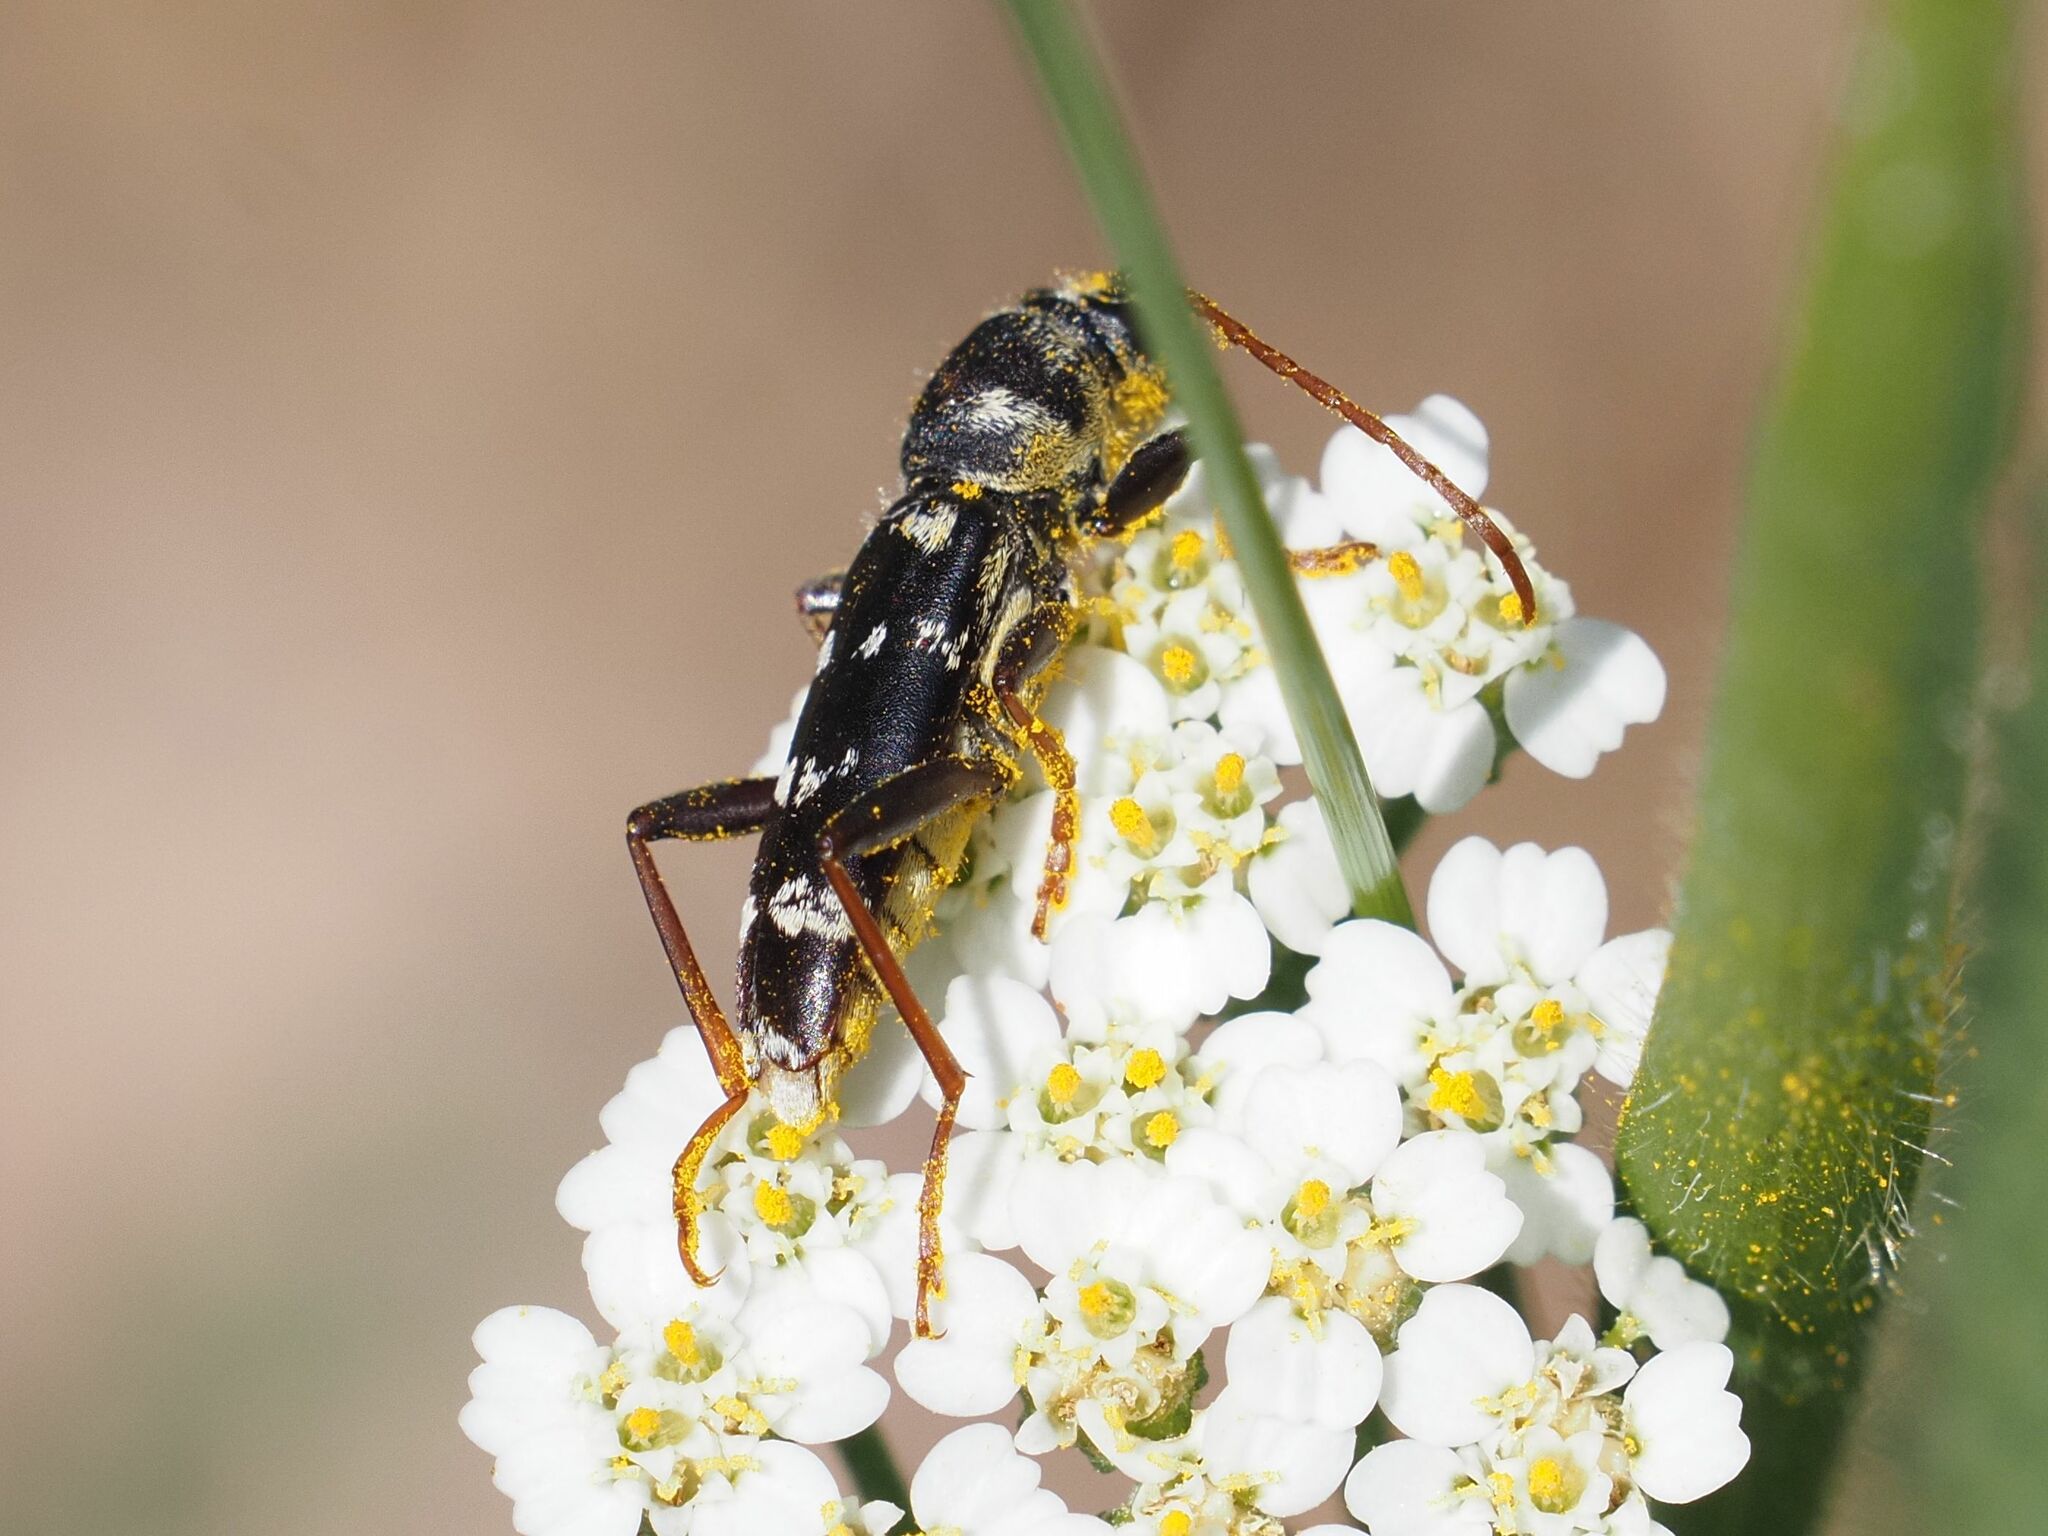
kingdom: Animalia
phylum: Arthropoda
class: Insecta
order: Coleoptera
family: Cerambycidae
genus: Plagionotus
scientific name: Plagionotus floralis
